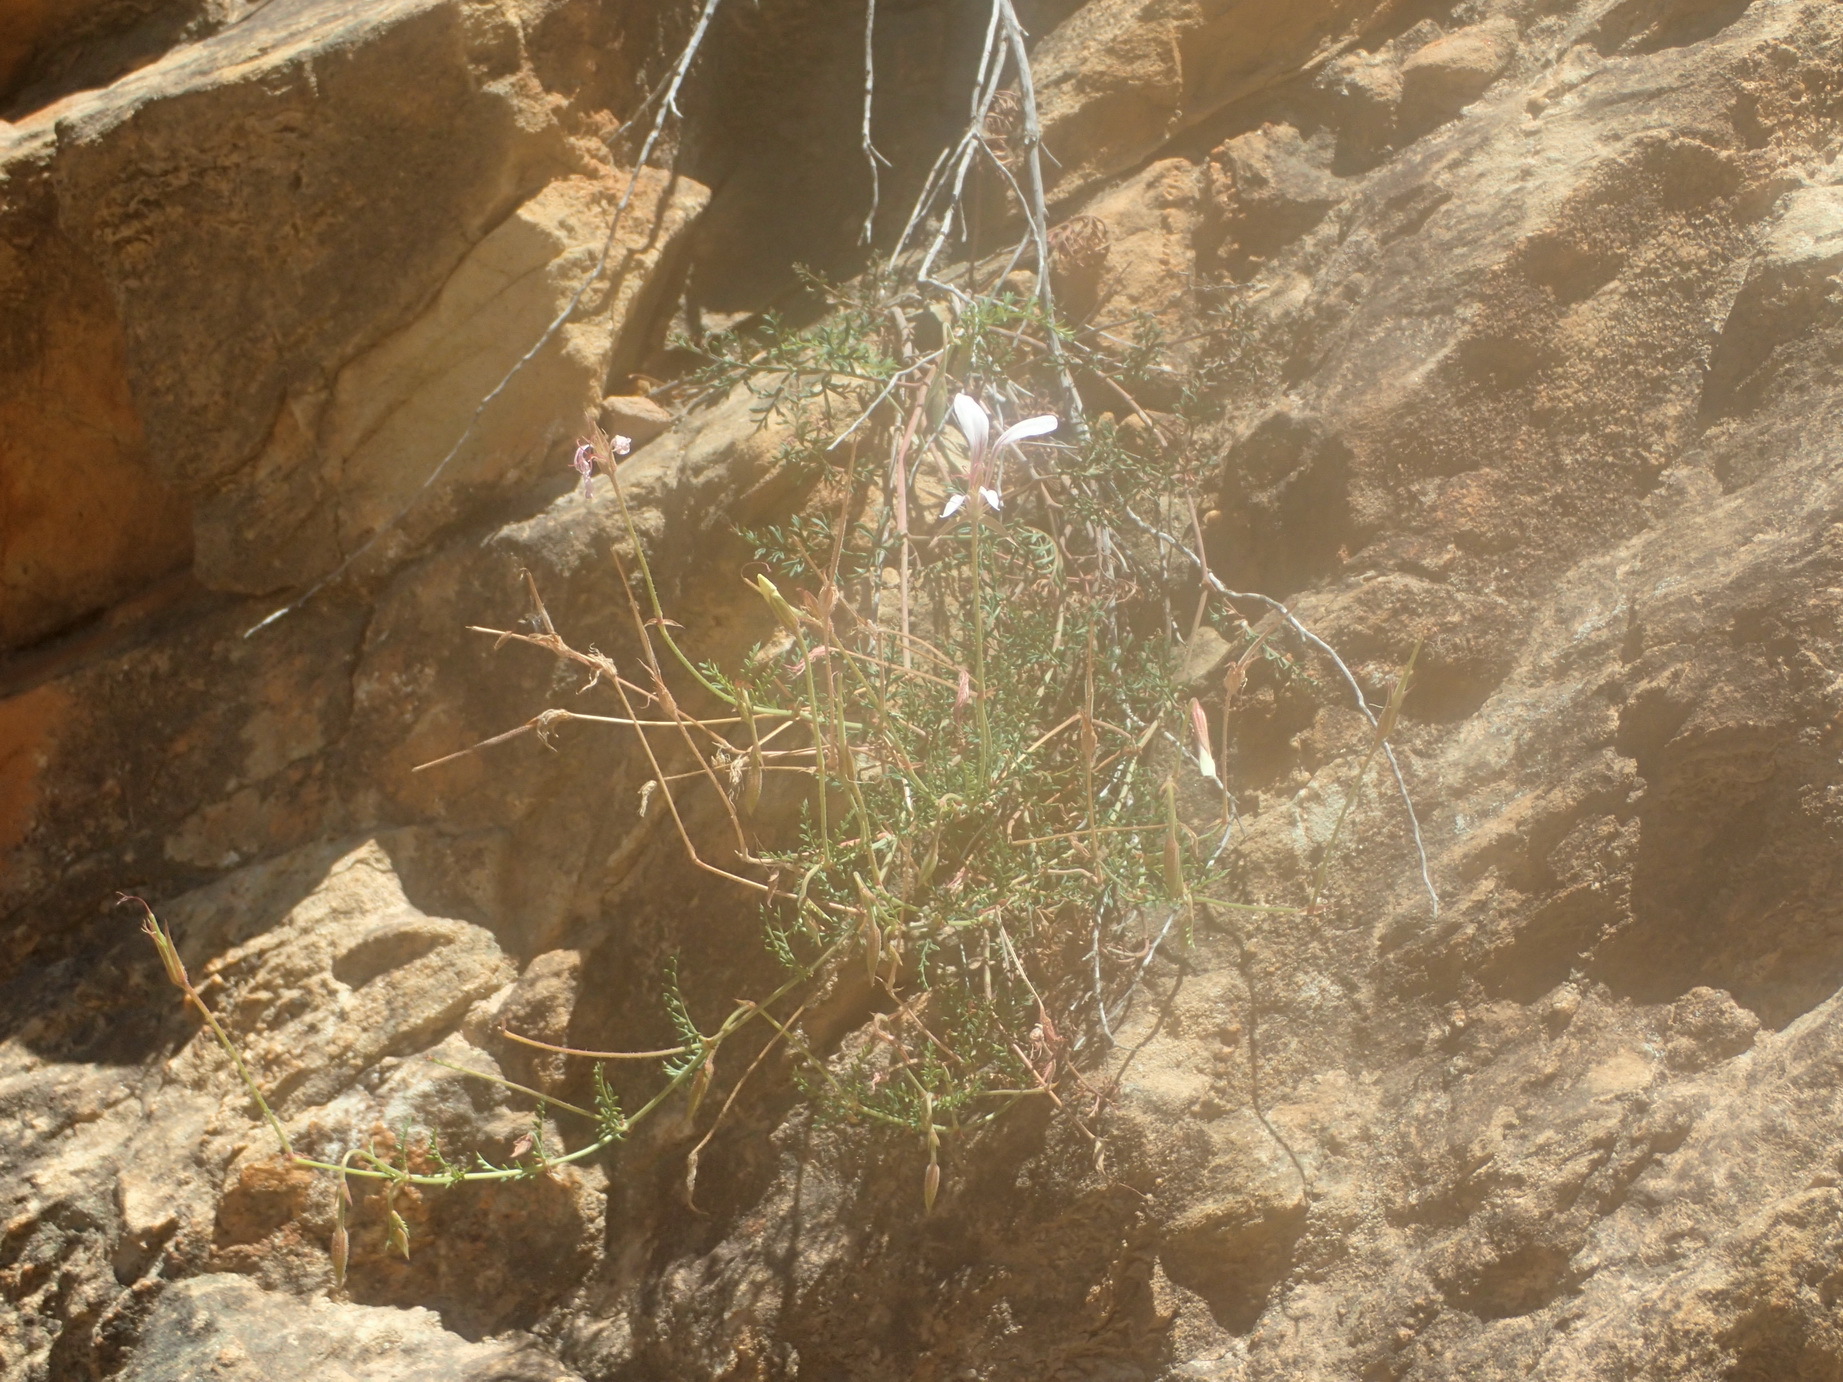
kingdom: Plantae
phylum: Tracheophyta
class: Magnoliopsida
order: Geraniales
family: Geraniaceae
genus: Pelargonium
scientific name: Pelargonium caucalifolium
